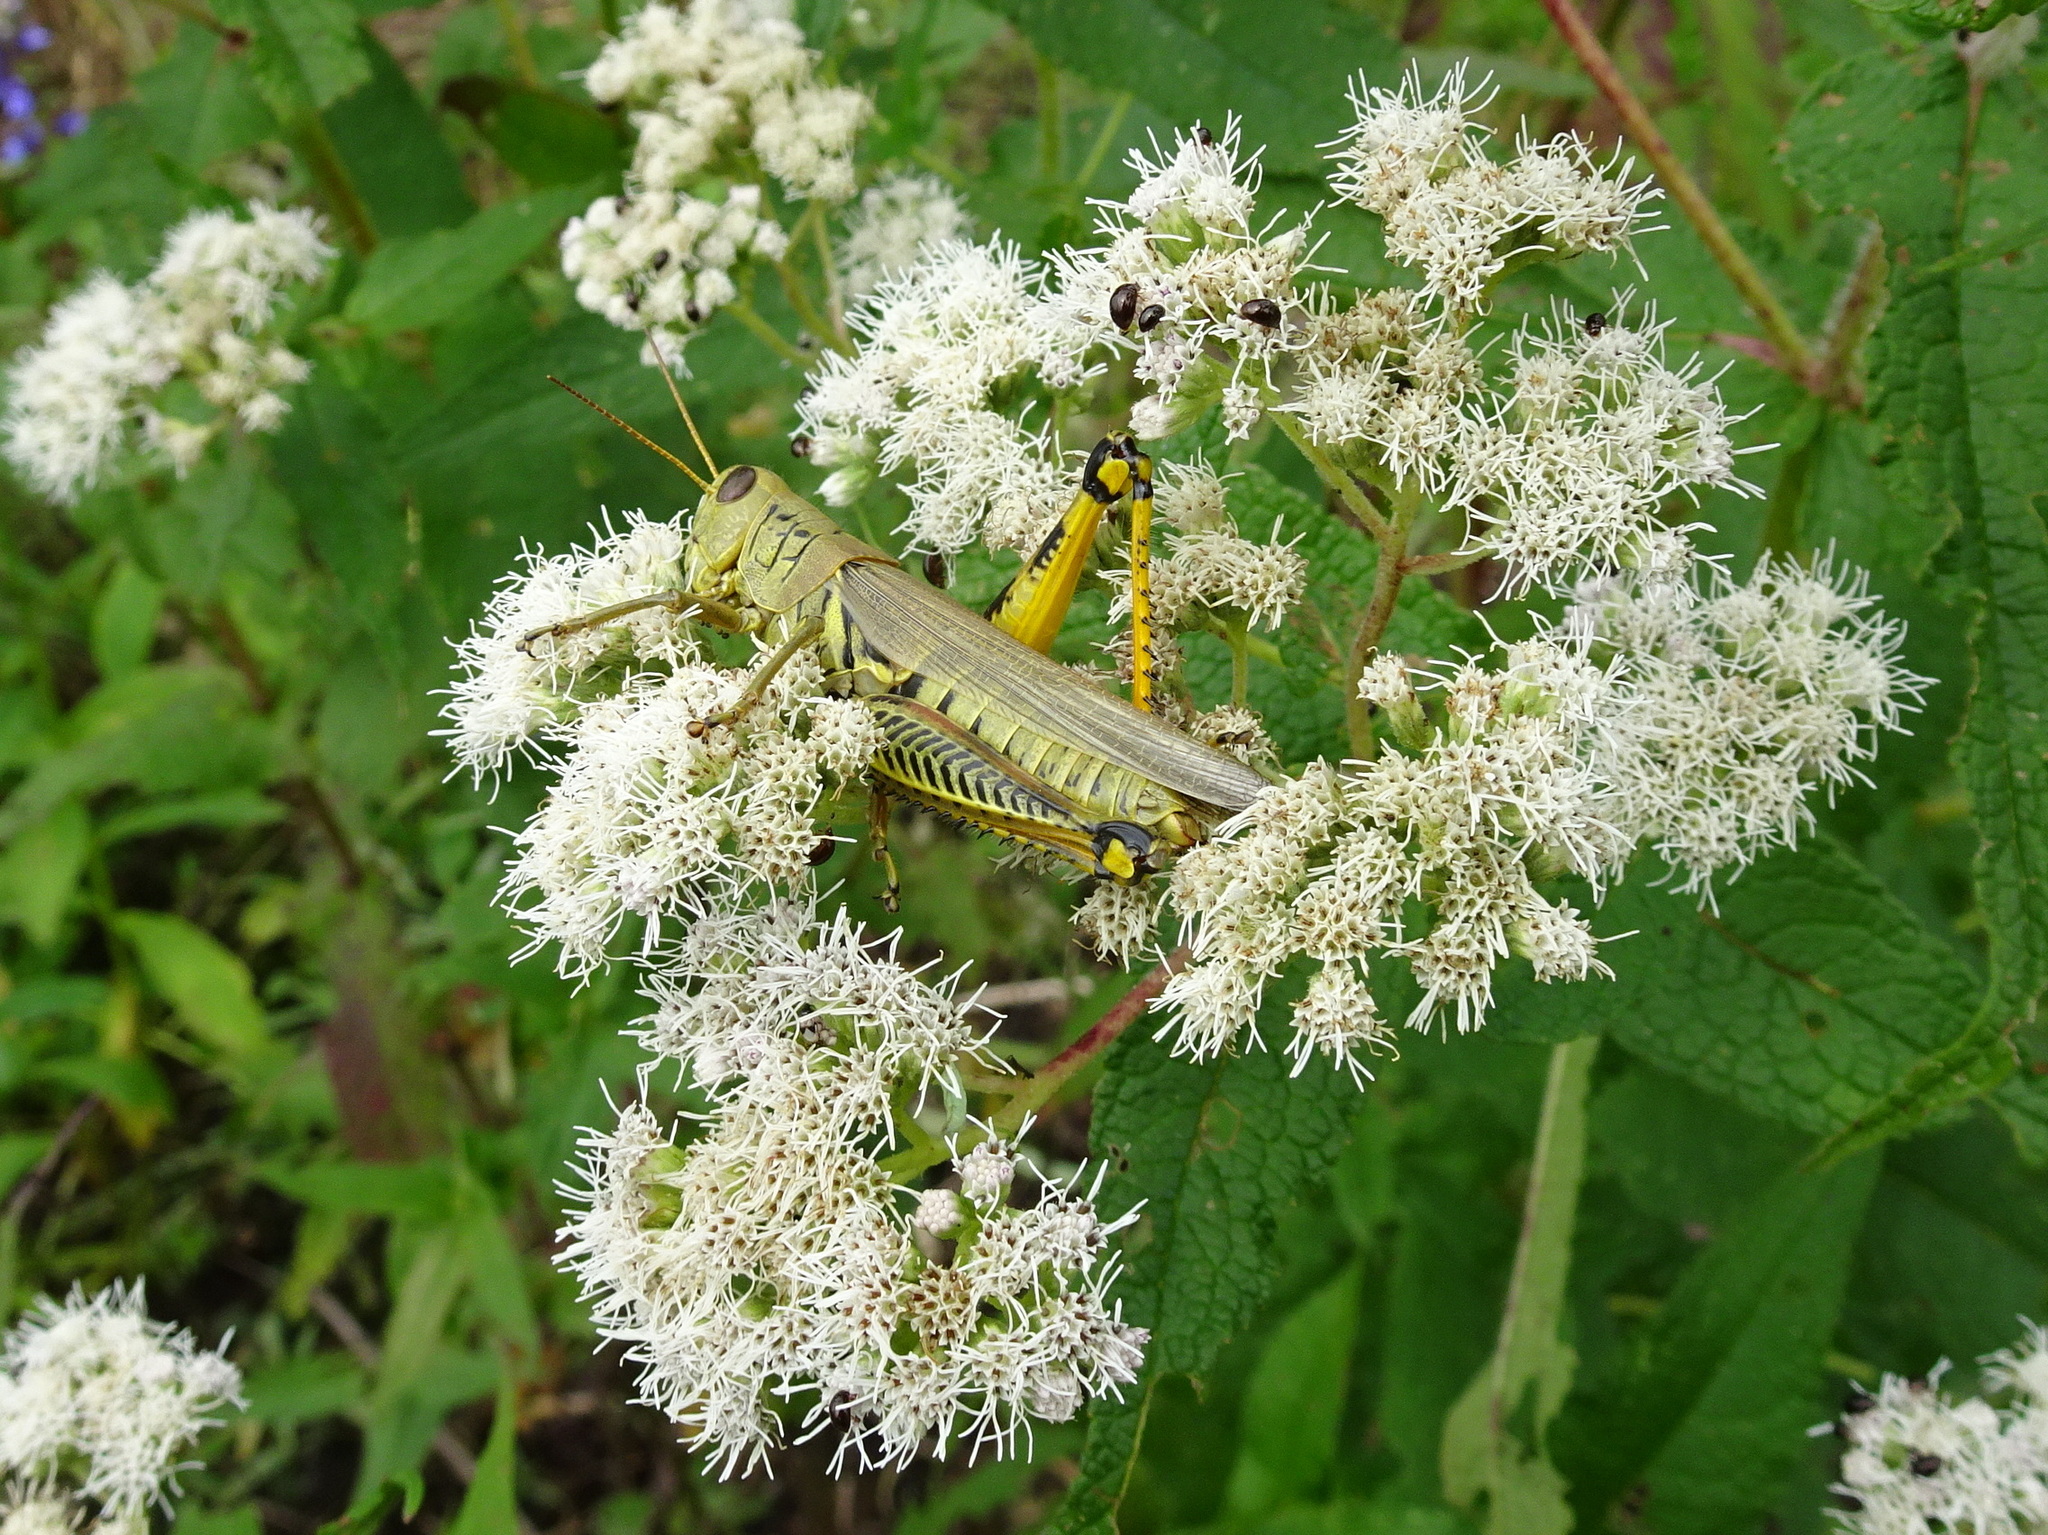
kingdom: Animalia
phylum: Arthropoda
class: Insecta
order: Orthoptera
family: Acrididae
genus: Melanoplus
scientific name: Melanoplus differentialis
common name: Differential grasshopper
